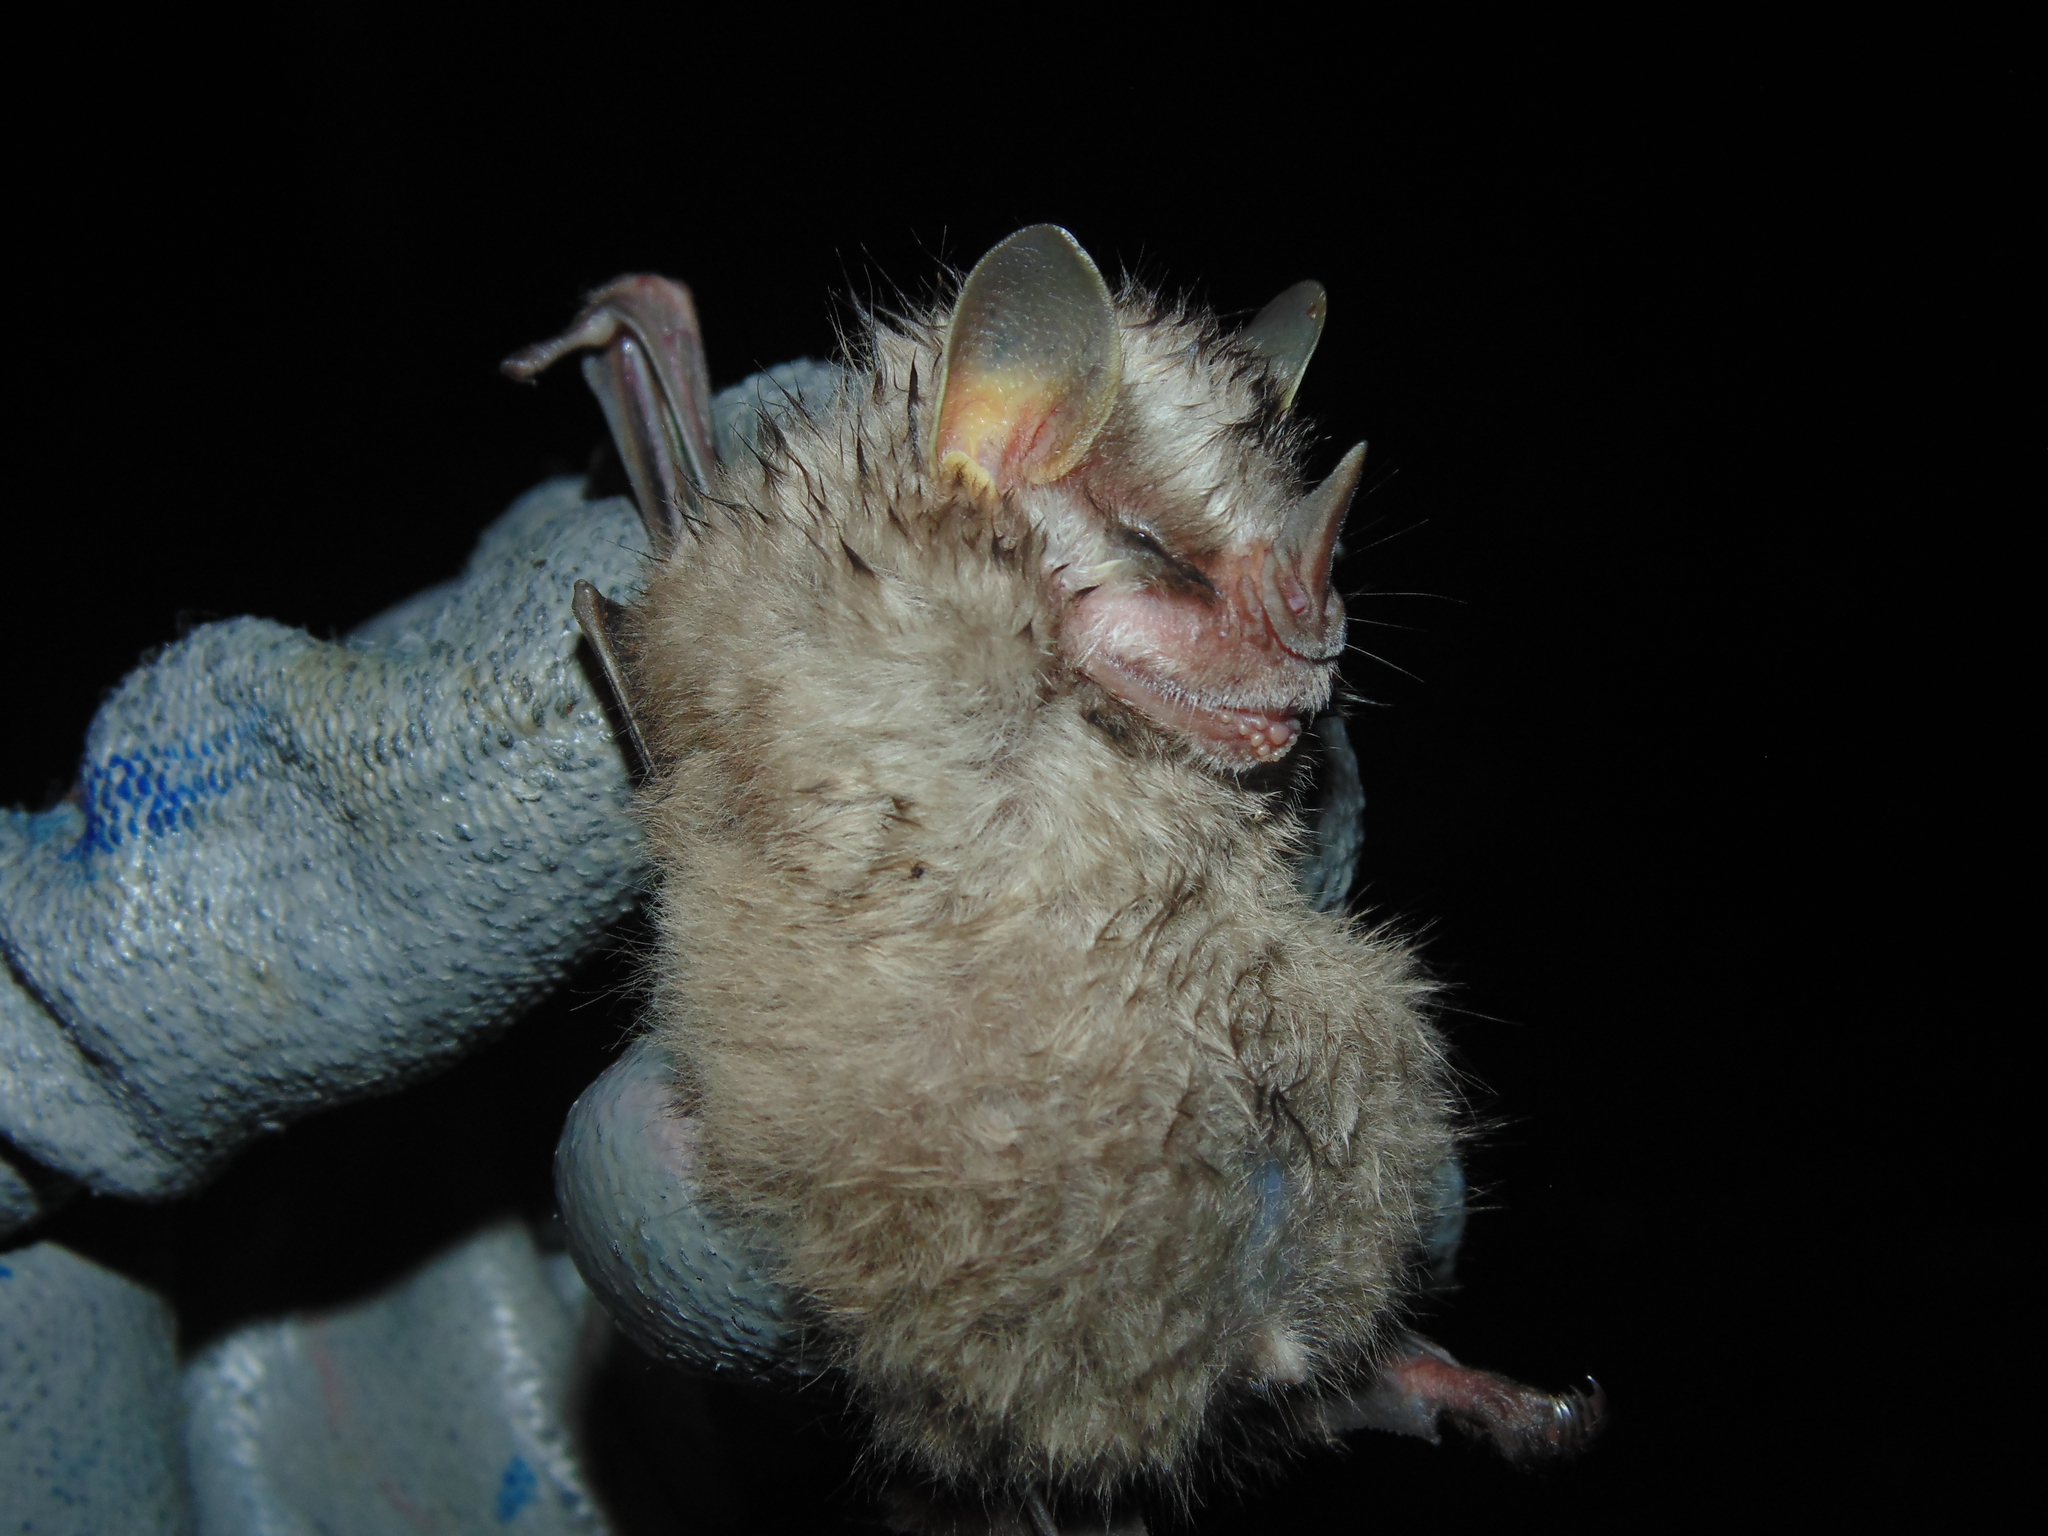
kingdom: Animalia
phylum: Chordata
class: Mammalia
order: Chiroptera
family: Phyllostomidae
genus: Vampyressa
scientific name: Vampyressa pusilla
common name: Southern little yellow-eared bat
